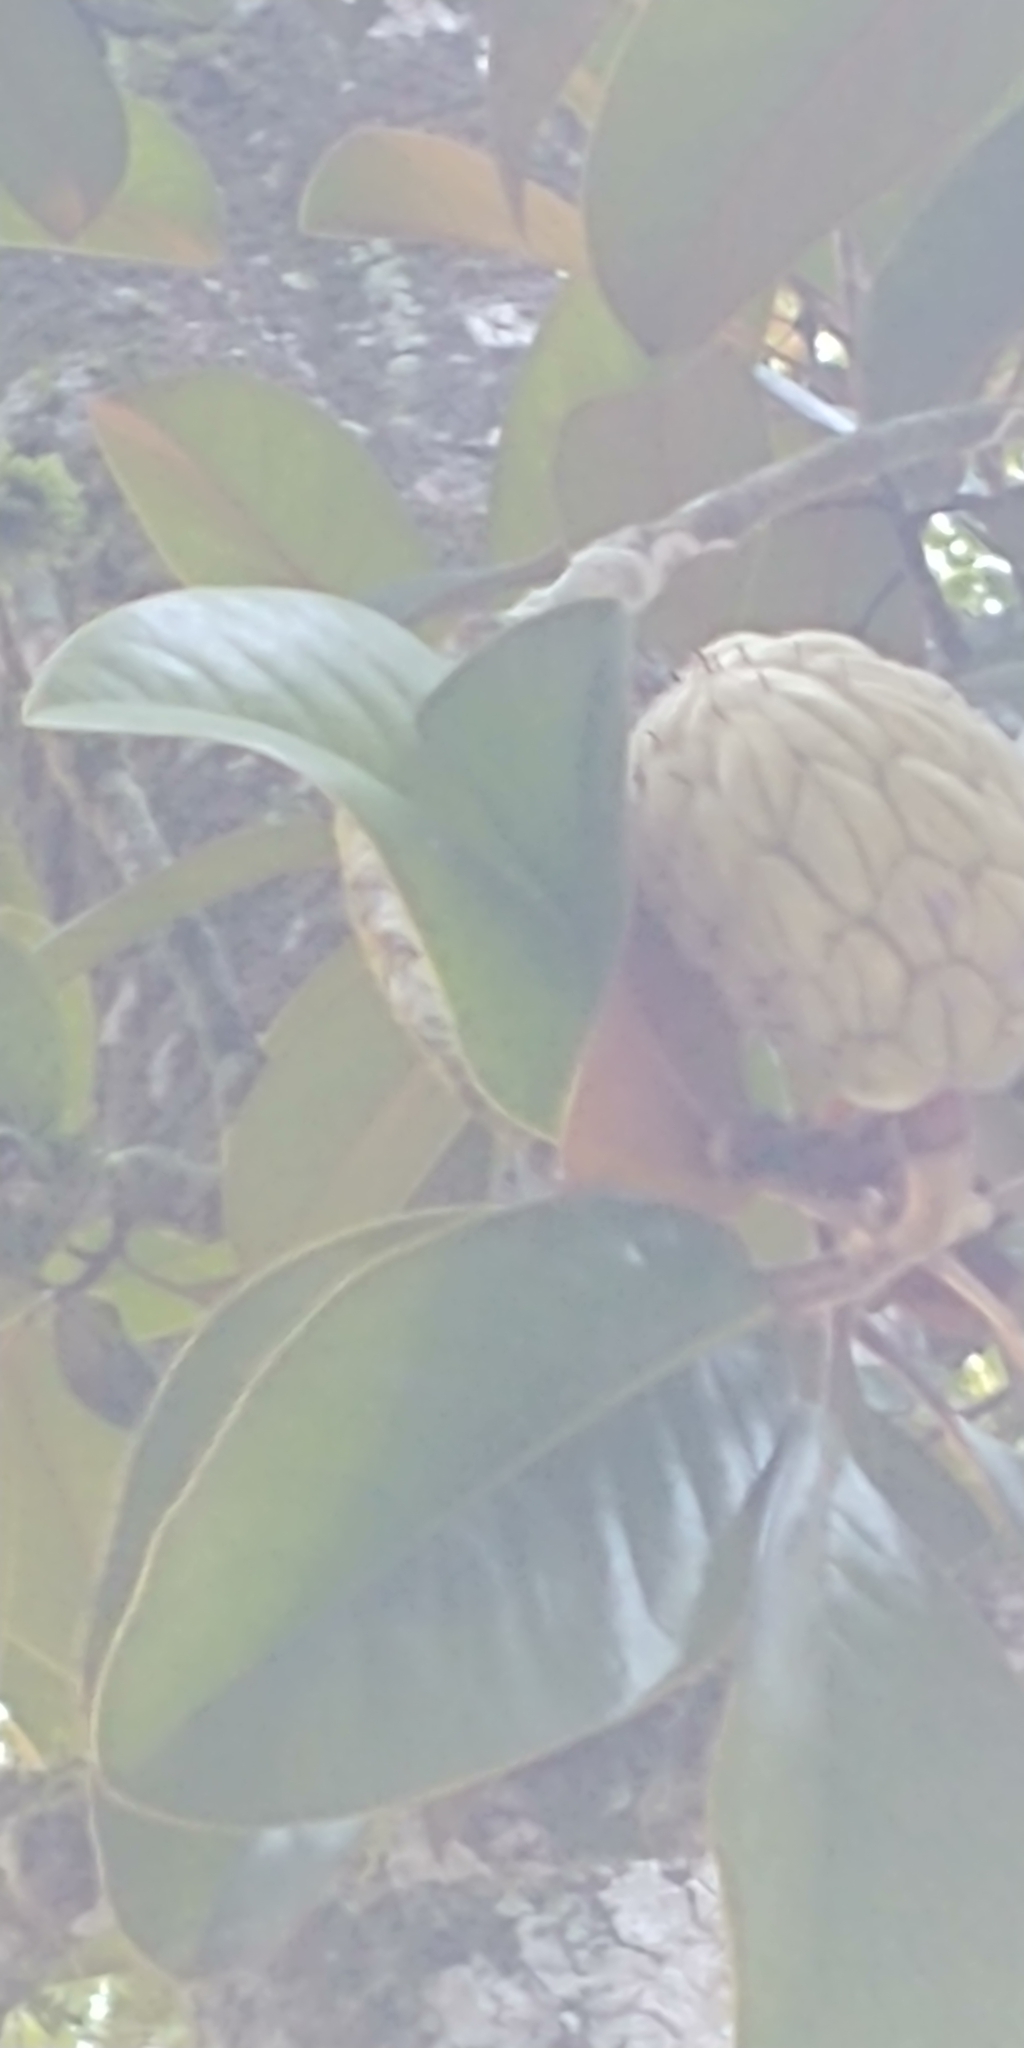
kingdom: Plantae
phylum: Tracheophyta
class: Magnoliopsida
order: Magnoliales
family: Magnoliaceae
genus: Magnolia
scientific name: Magnolia grandiflora
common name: Southern magnolia
